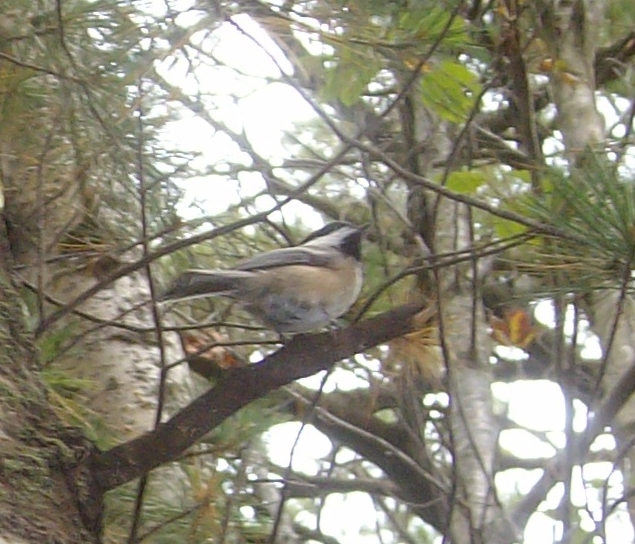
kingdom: Animalia
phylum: Chordata
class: Aves
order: Passeriformes
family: Paridae
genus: Poecile
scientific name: Poecile atricapillus
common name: Black-capped chickadee
